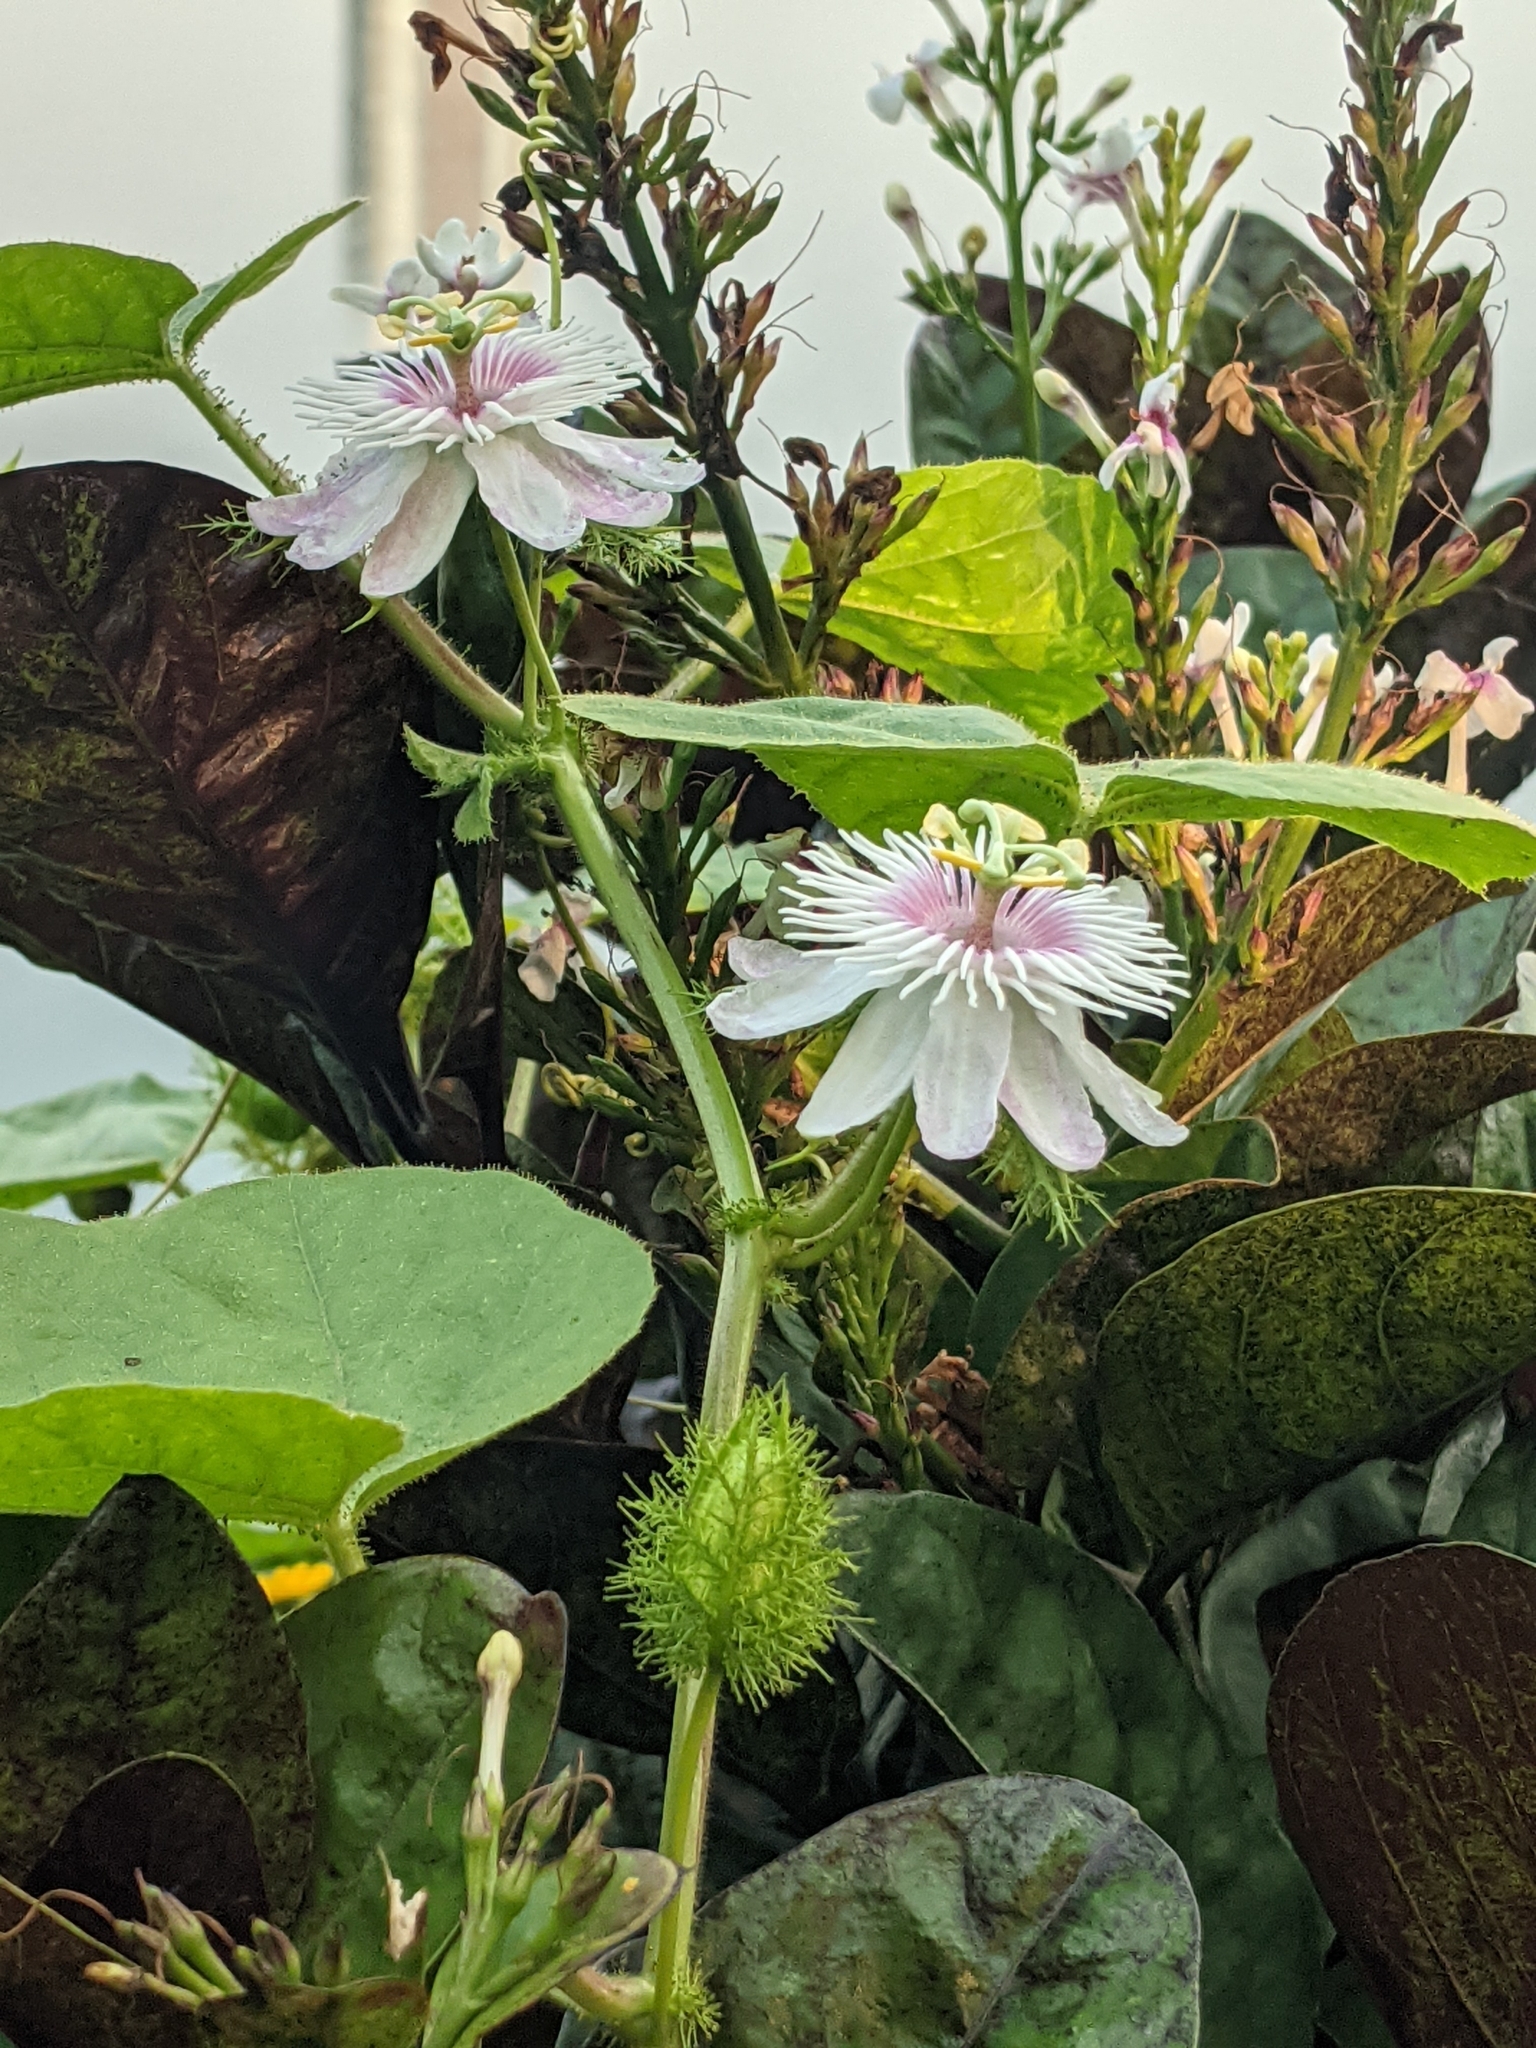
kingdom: Plantae
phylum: Tracheophyta
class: Magnoliopsida
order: Malpighiales
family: Passifloraceae
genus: Passiflora
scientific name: Passiflora foetida
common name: Fetid passionflower
